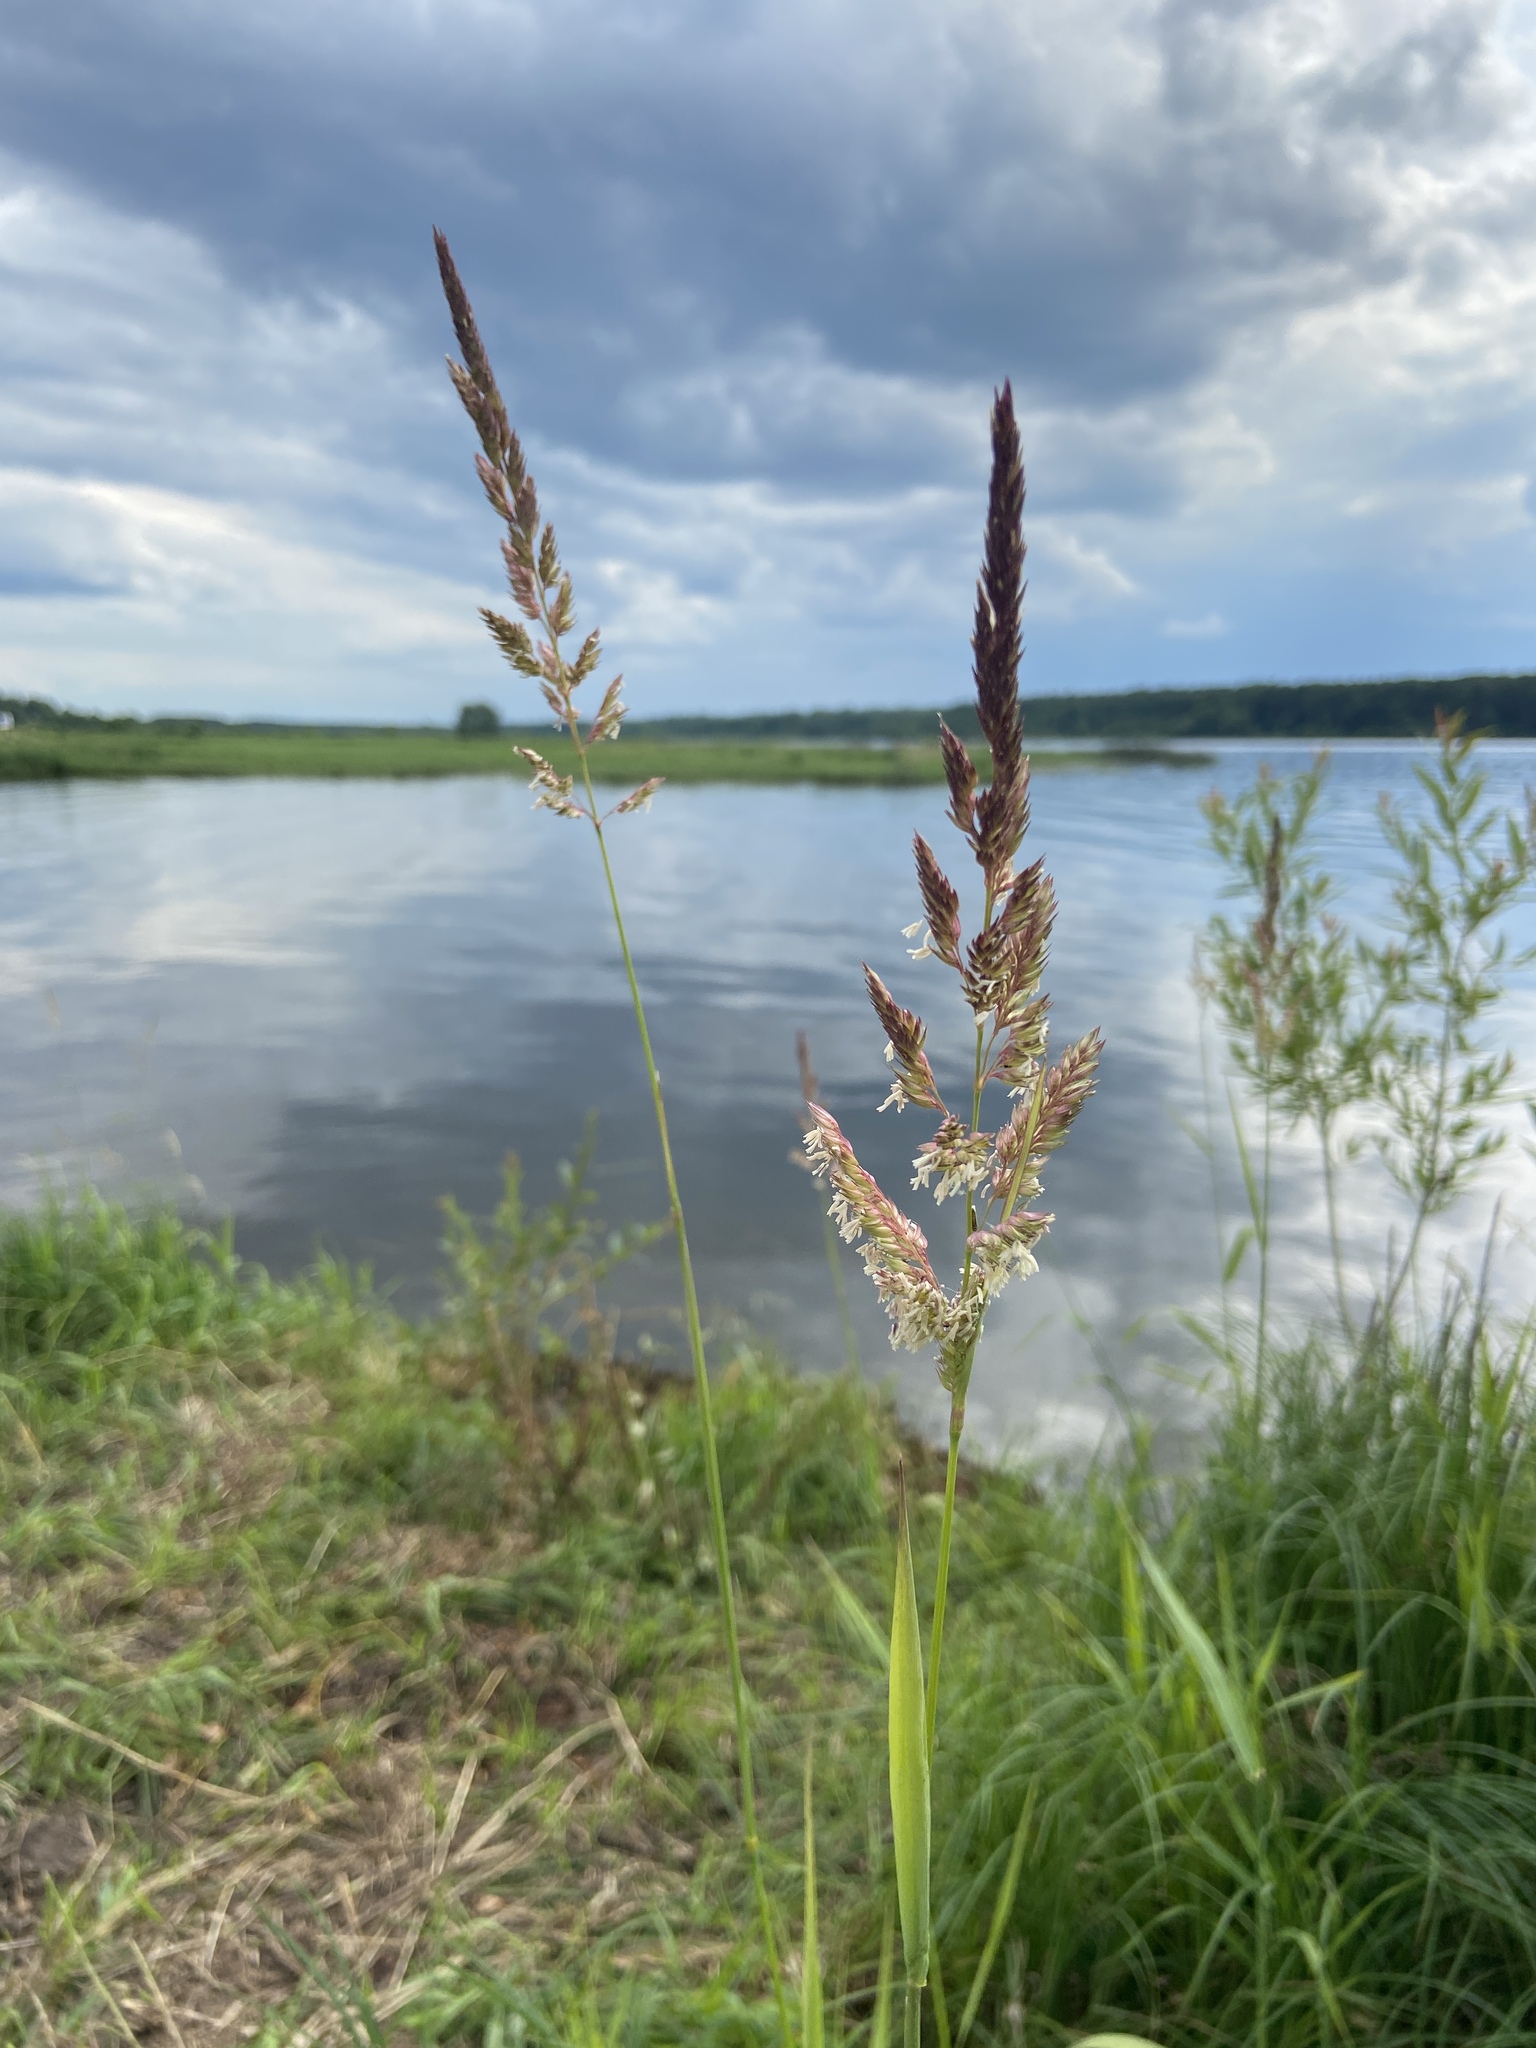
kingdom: Plantae
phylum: Tracheophyta
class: Liliopsida
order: Poales
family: Poaceae
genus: Phalaris
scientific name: Phalaris arundinacea
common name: Reed canary-grass
